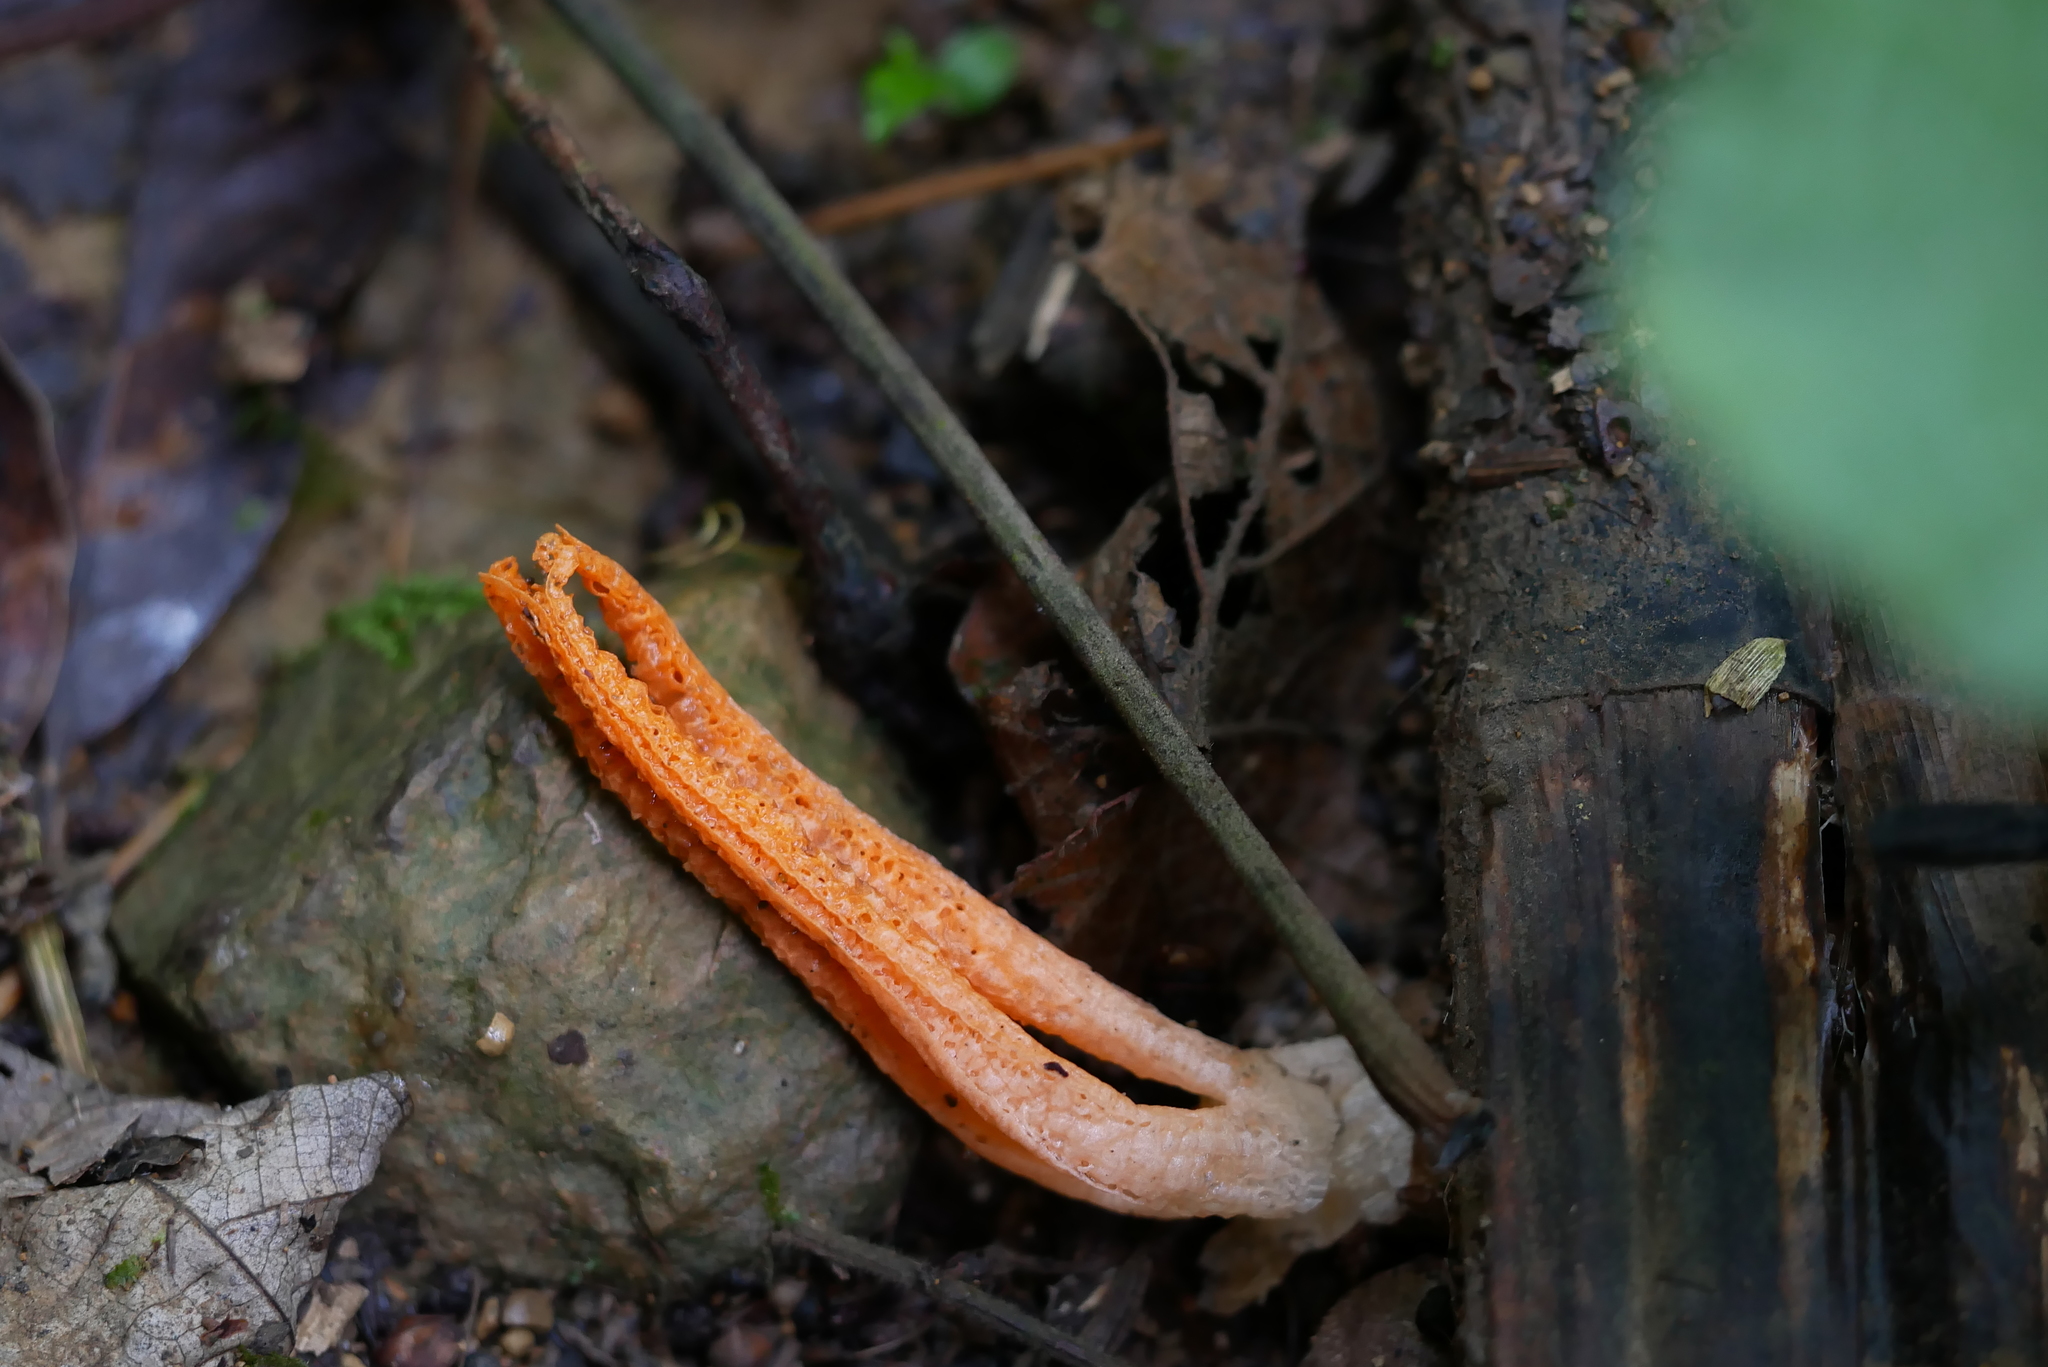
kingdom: Fungi
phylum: Basidiomycota
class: Agaricomycetes
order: Phallales
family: Phallaceae
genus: Pseudocolus
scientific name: Pseudocolus fusiformis
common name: Stinky squid
